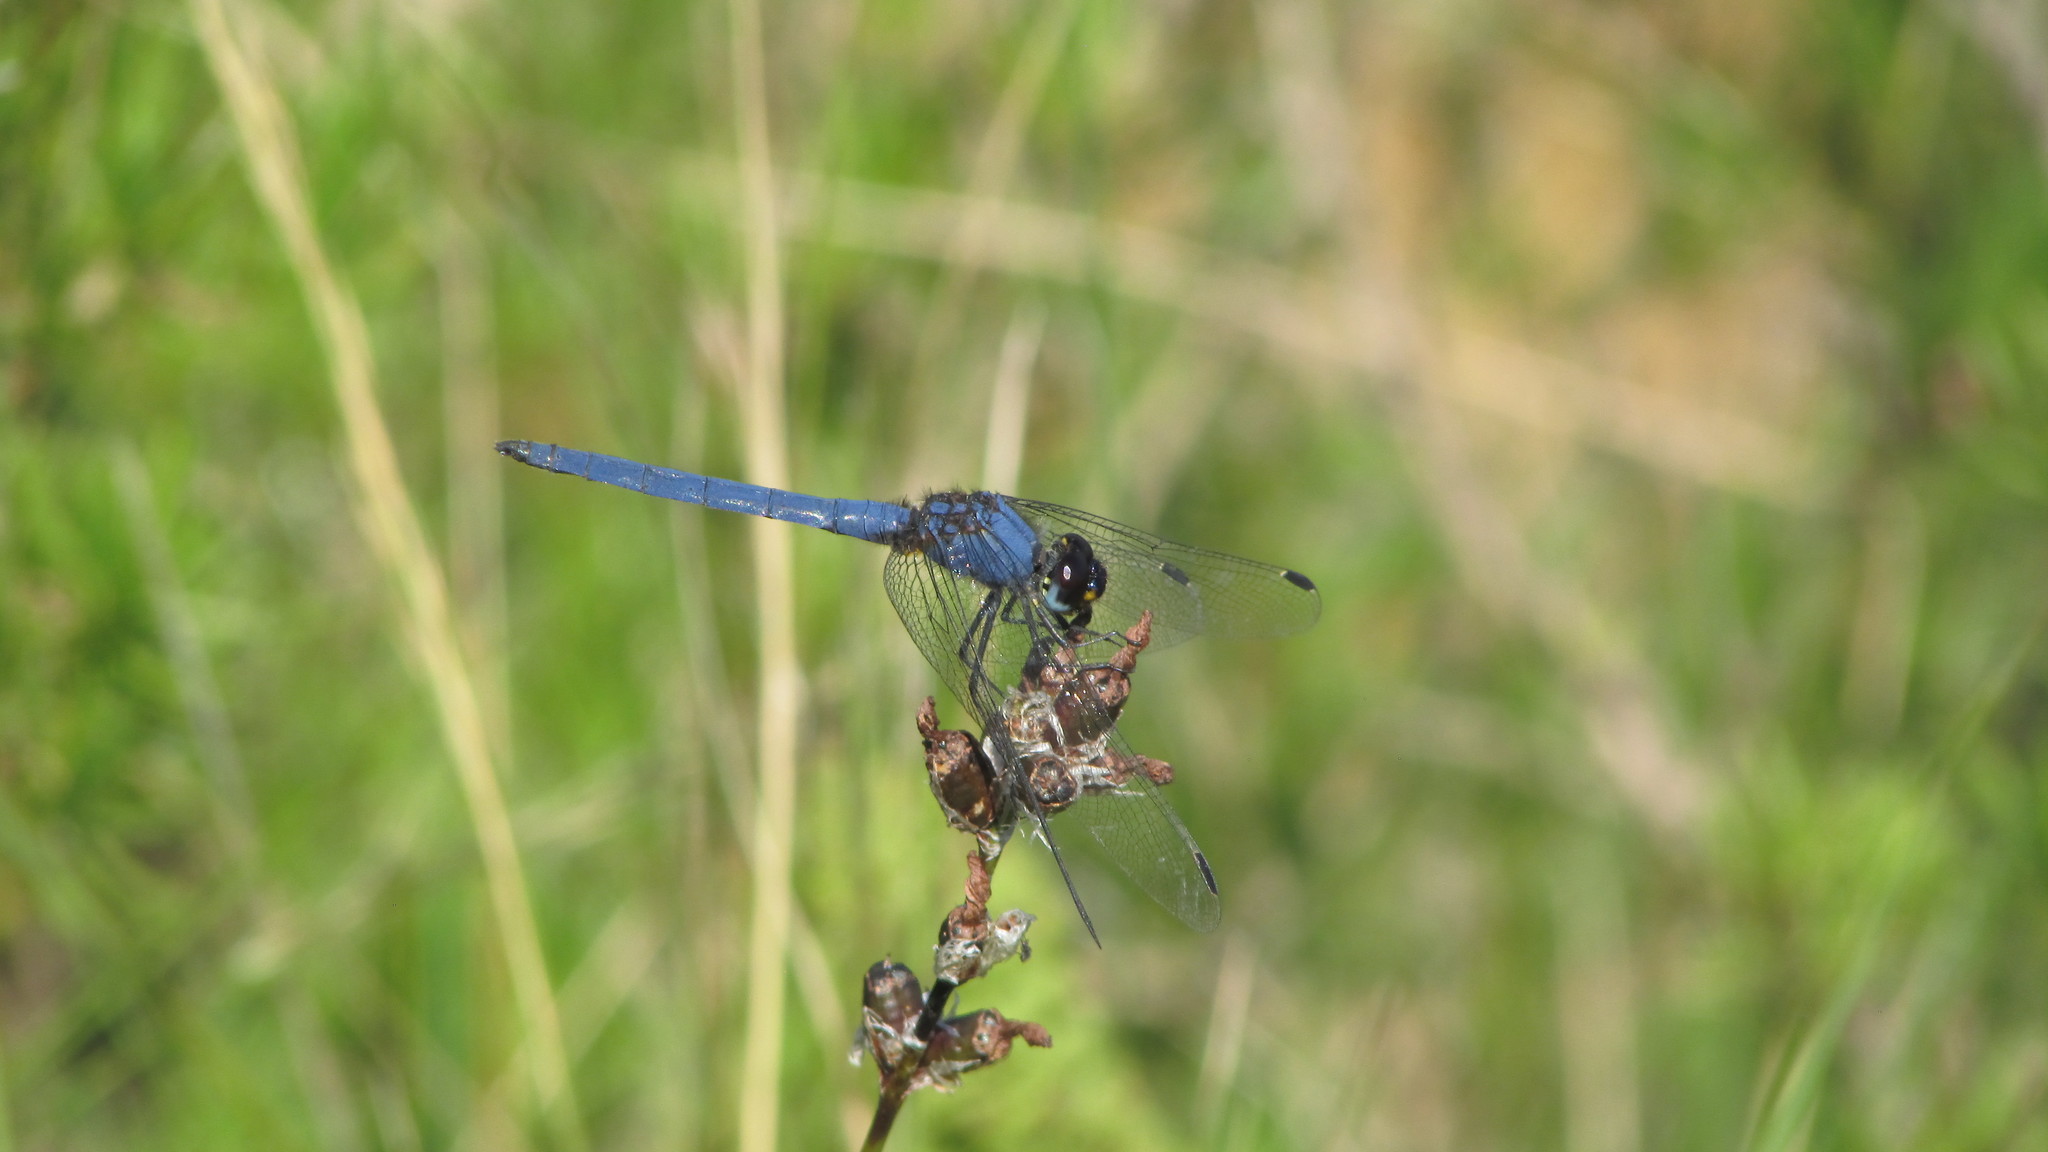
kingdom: Animalia
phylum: Arthropoda
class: Insecta
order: Odonata
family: Libellulidae
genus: Trithemis
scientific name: Trithemis furva
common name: Dark dropwing
